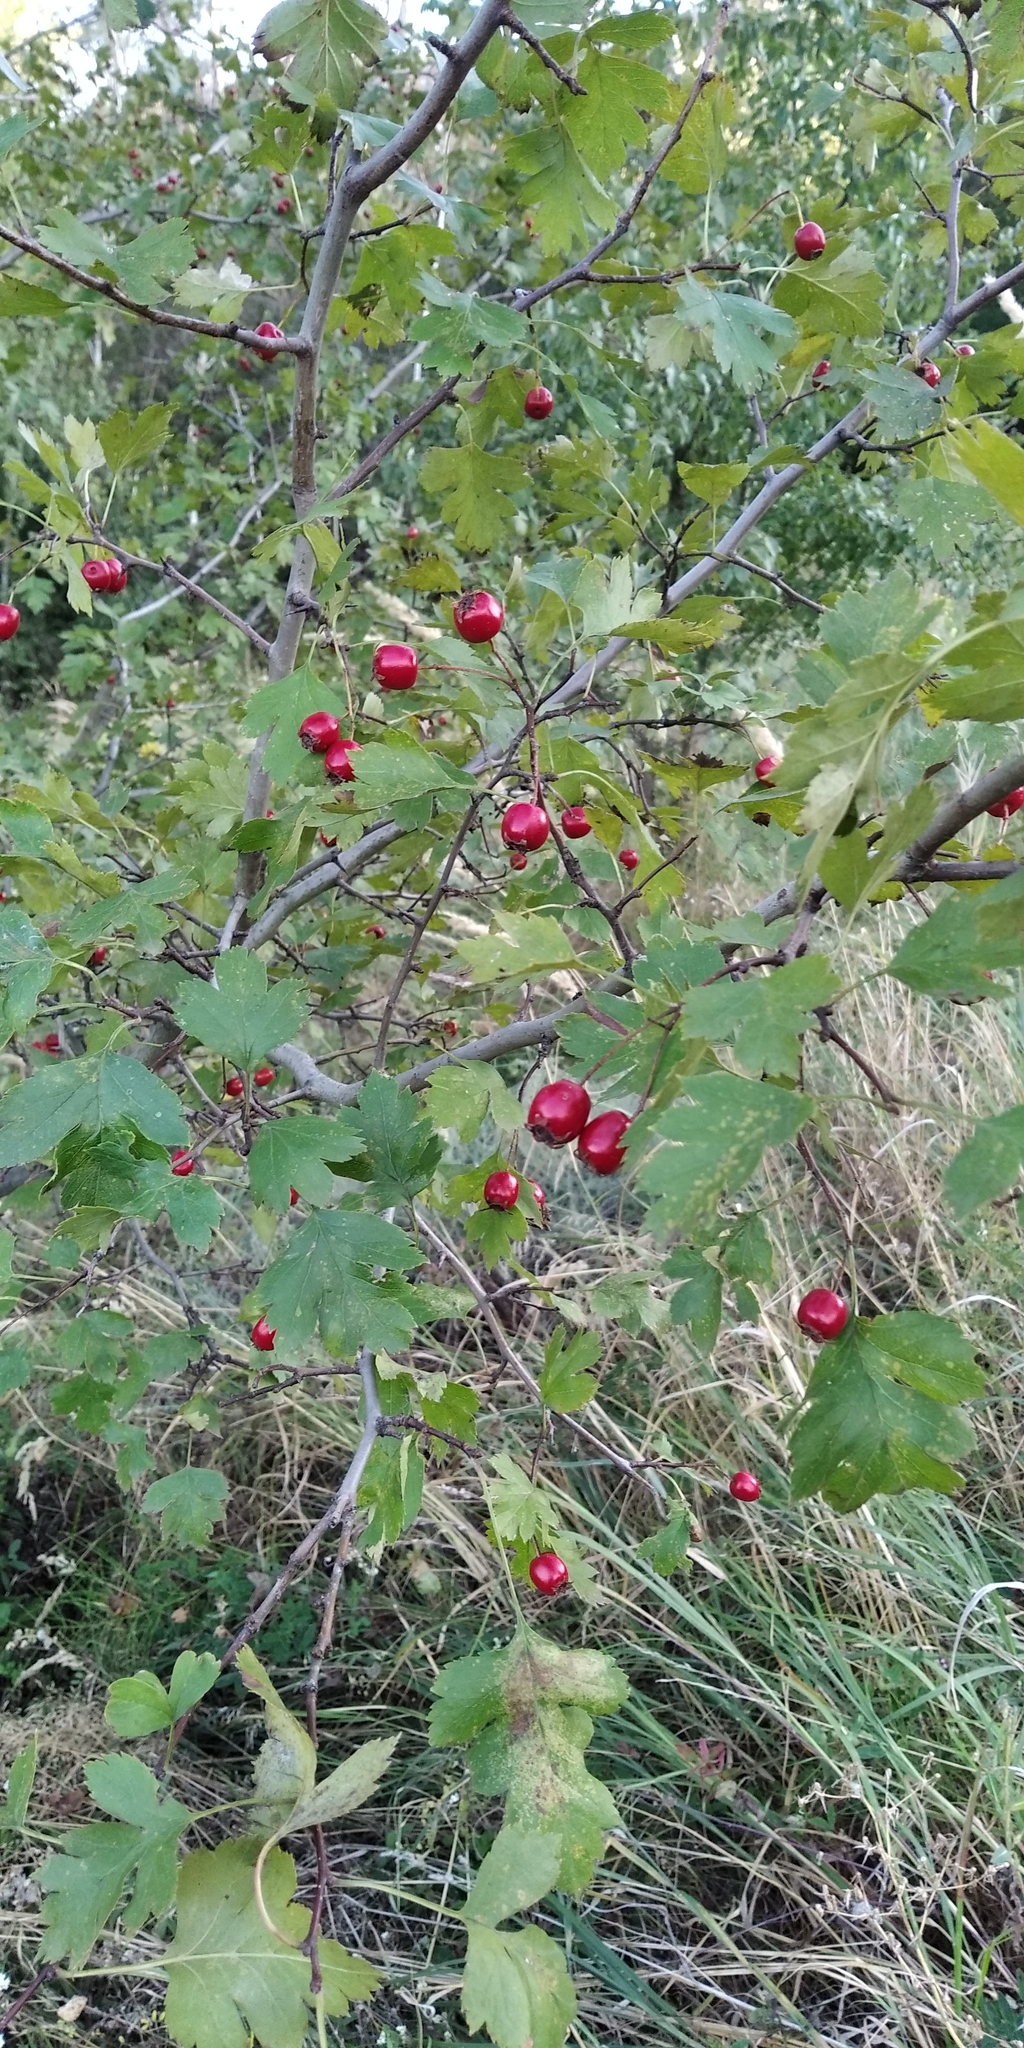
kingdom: Plantae
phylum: Tracheophyta
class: Magnoliopsida
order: Rosales
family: Rosaceae
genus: Crataegus
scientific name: Crataegus kyrtostyla
